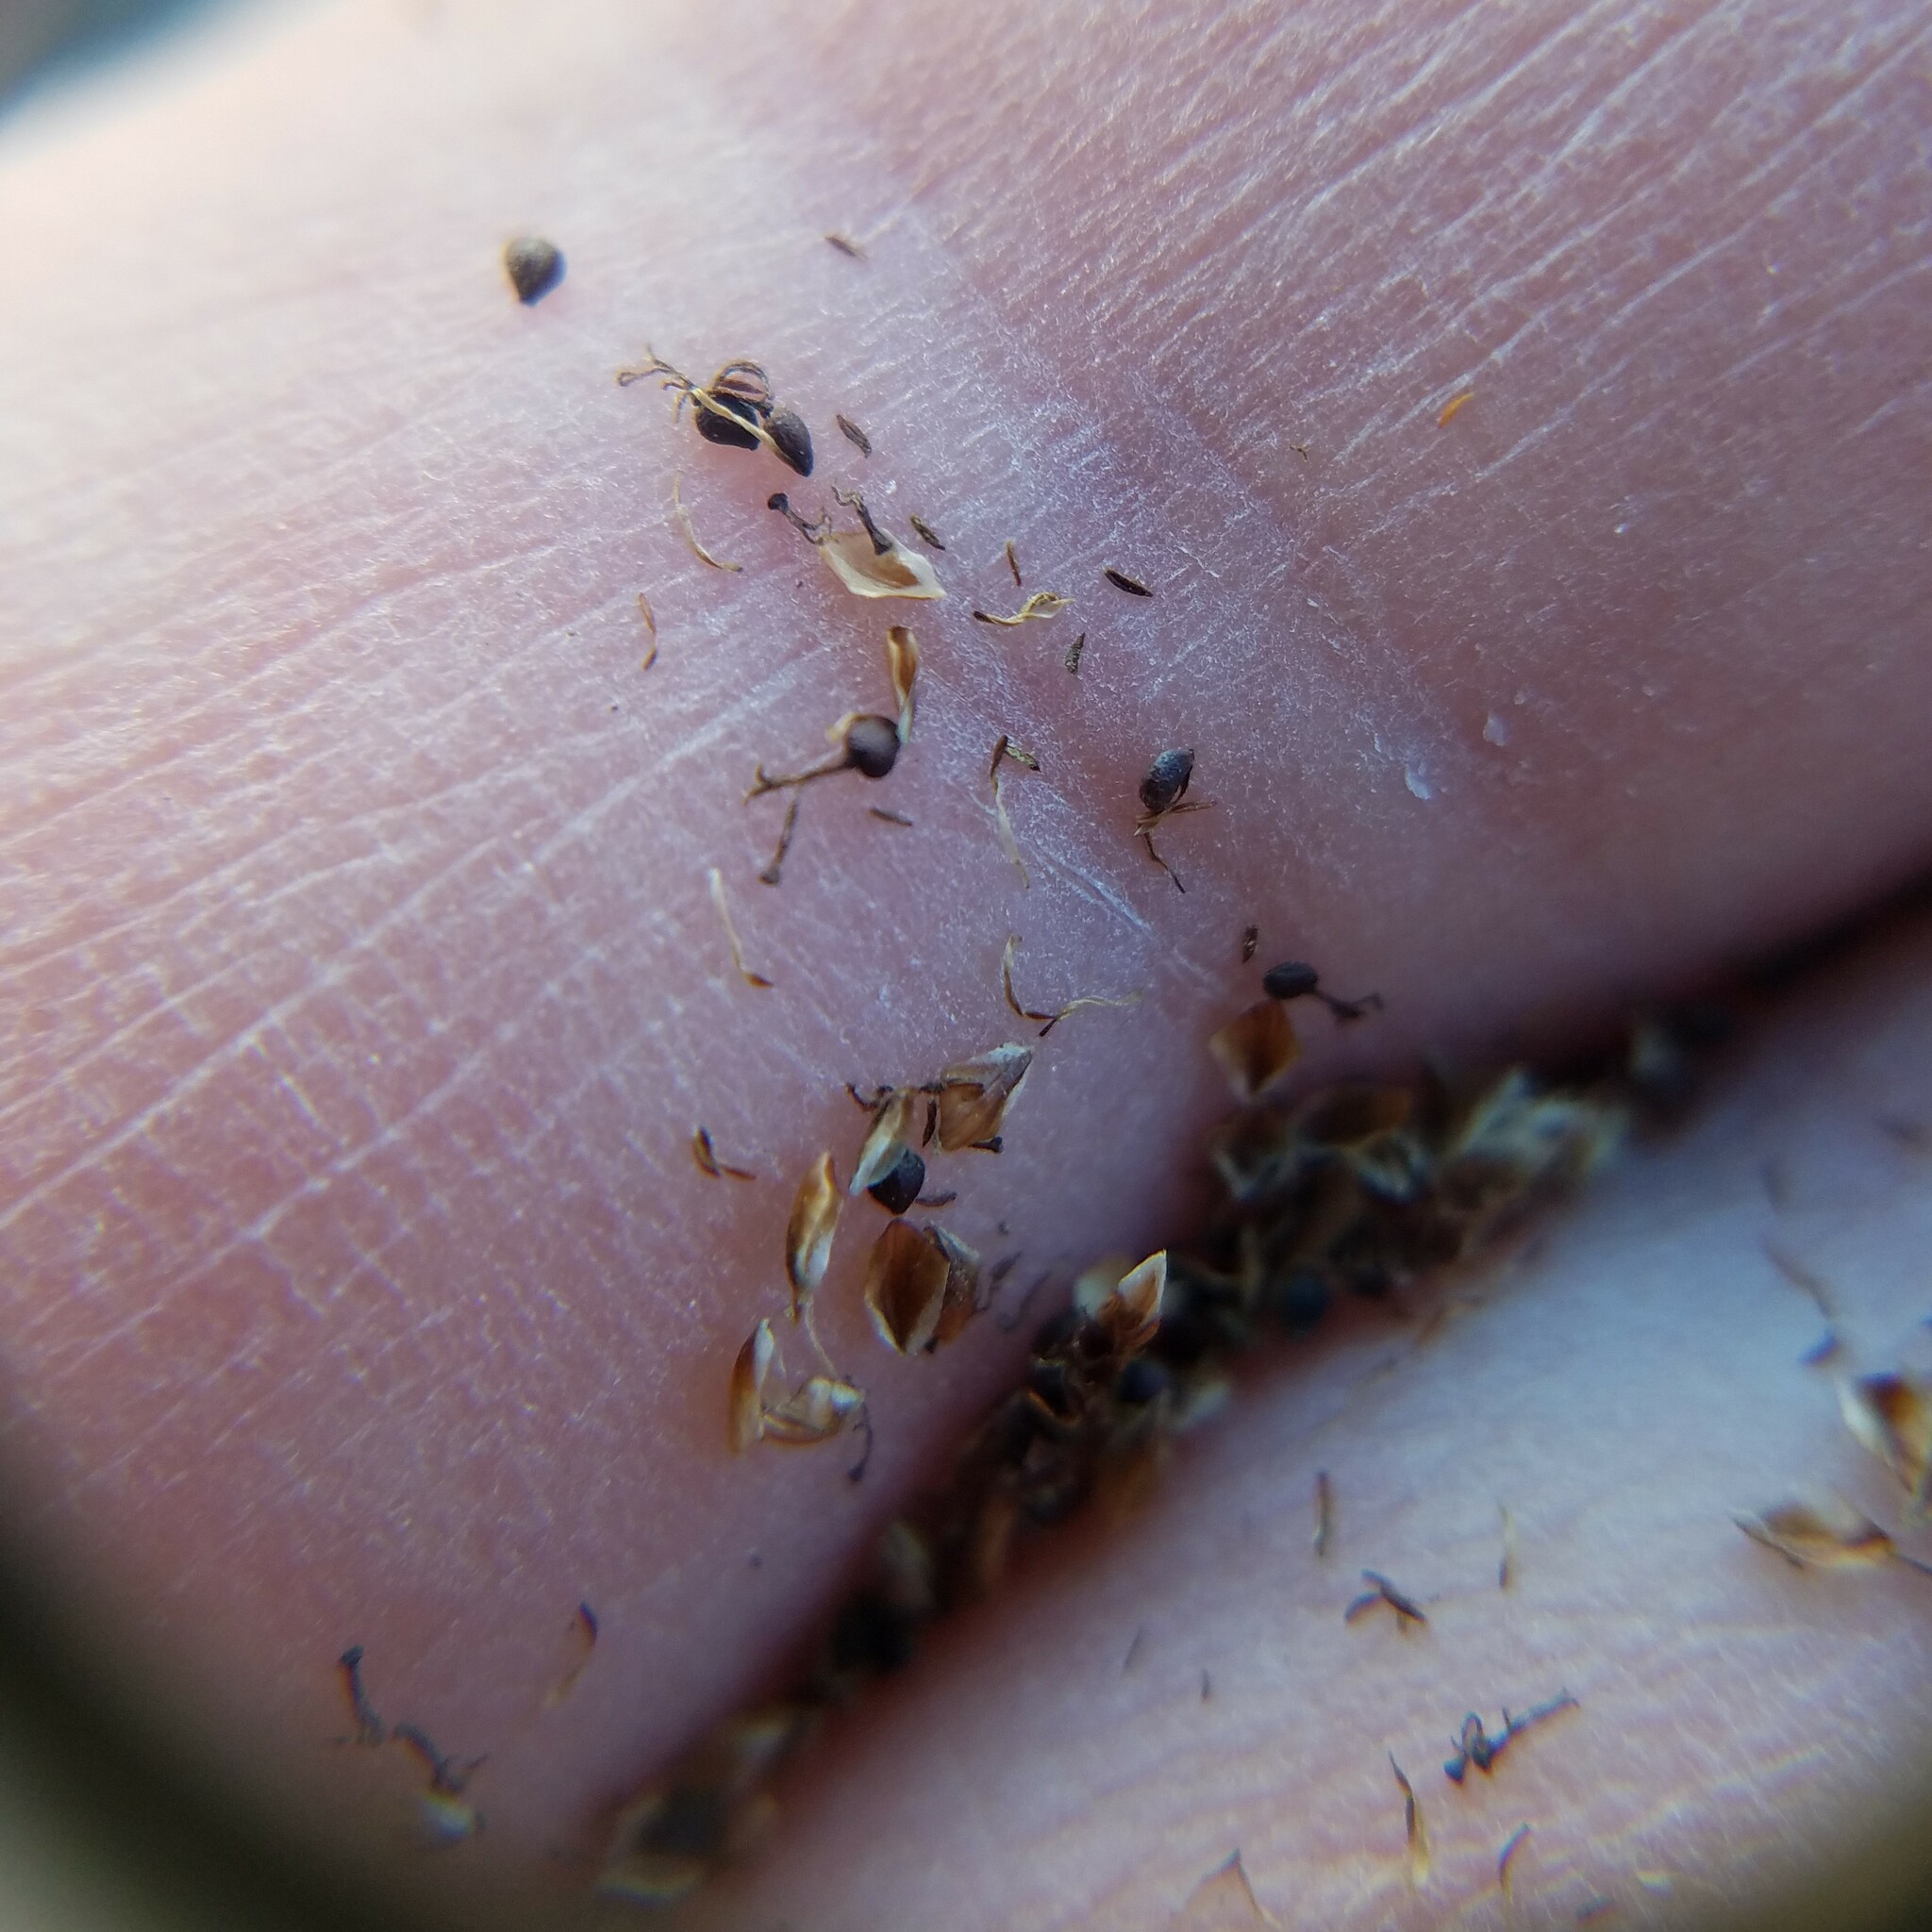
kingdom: Plantae
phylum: Tracheophyta
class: Liliopsida
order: Poales
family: Cyperaceae
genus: Fimbristylis
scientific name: Fimbristylis cymosa
